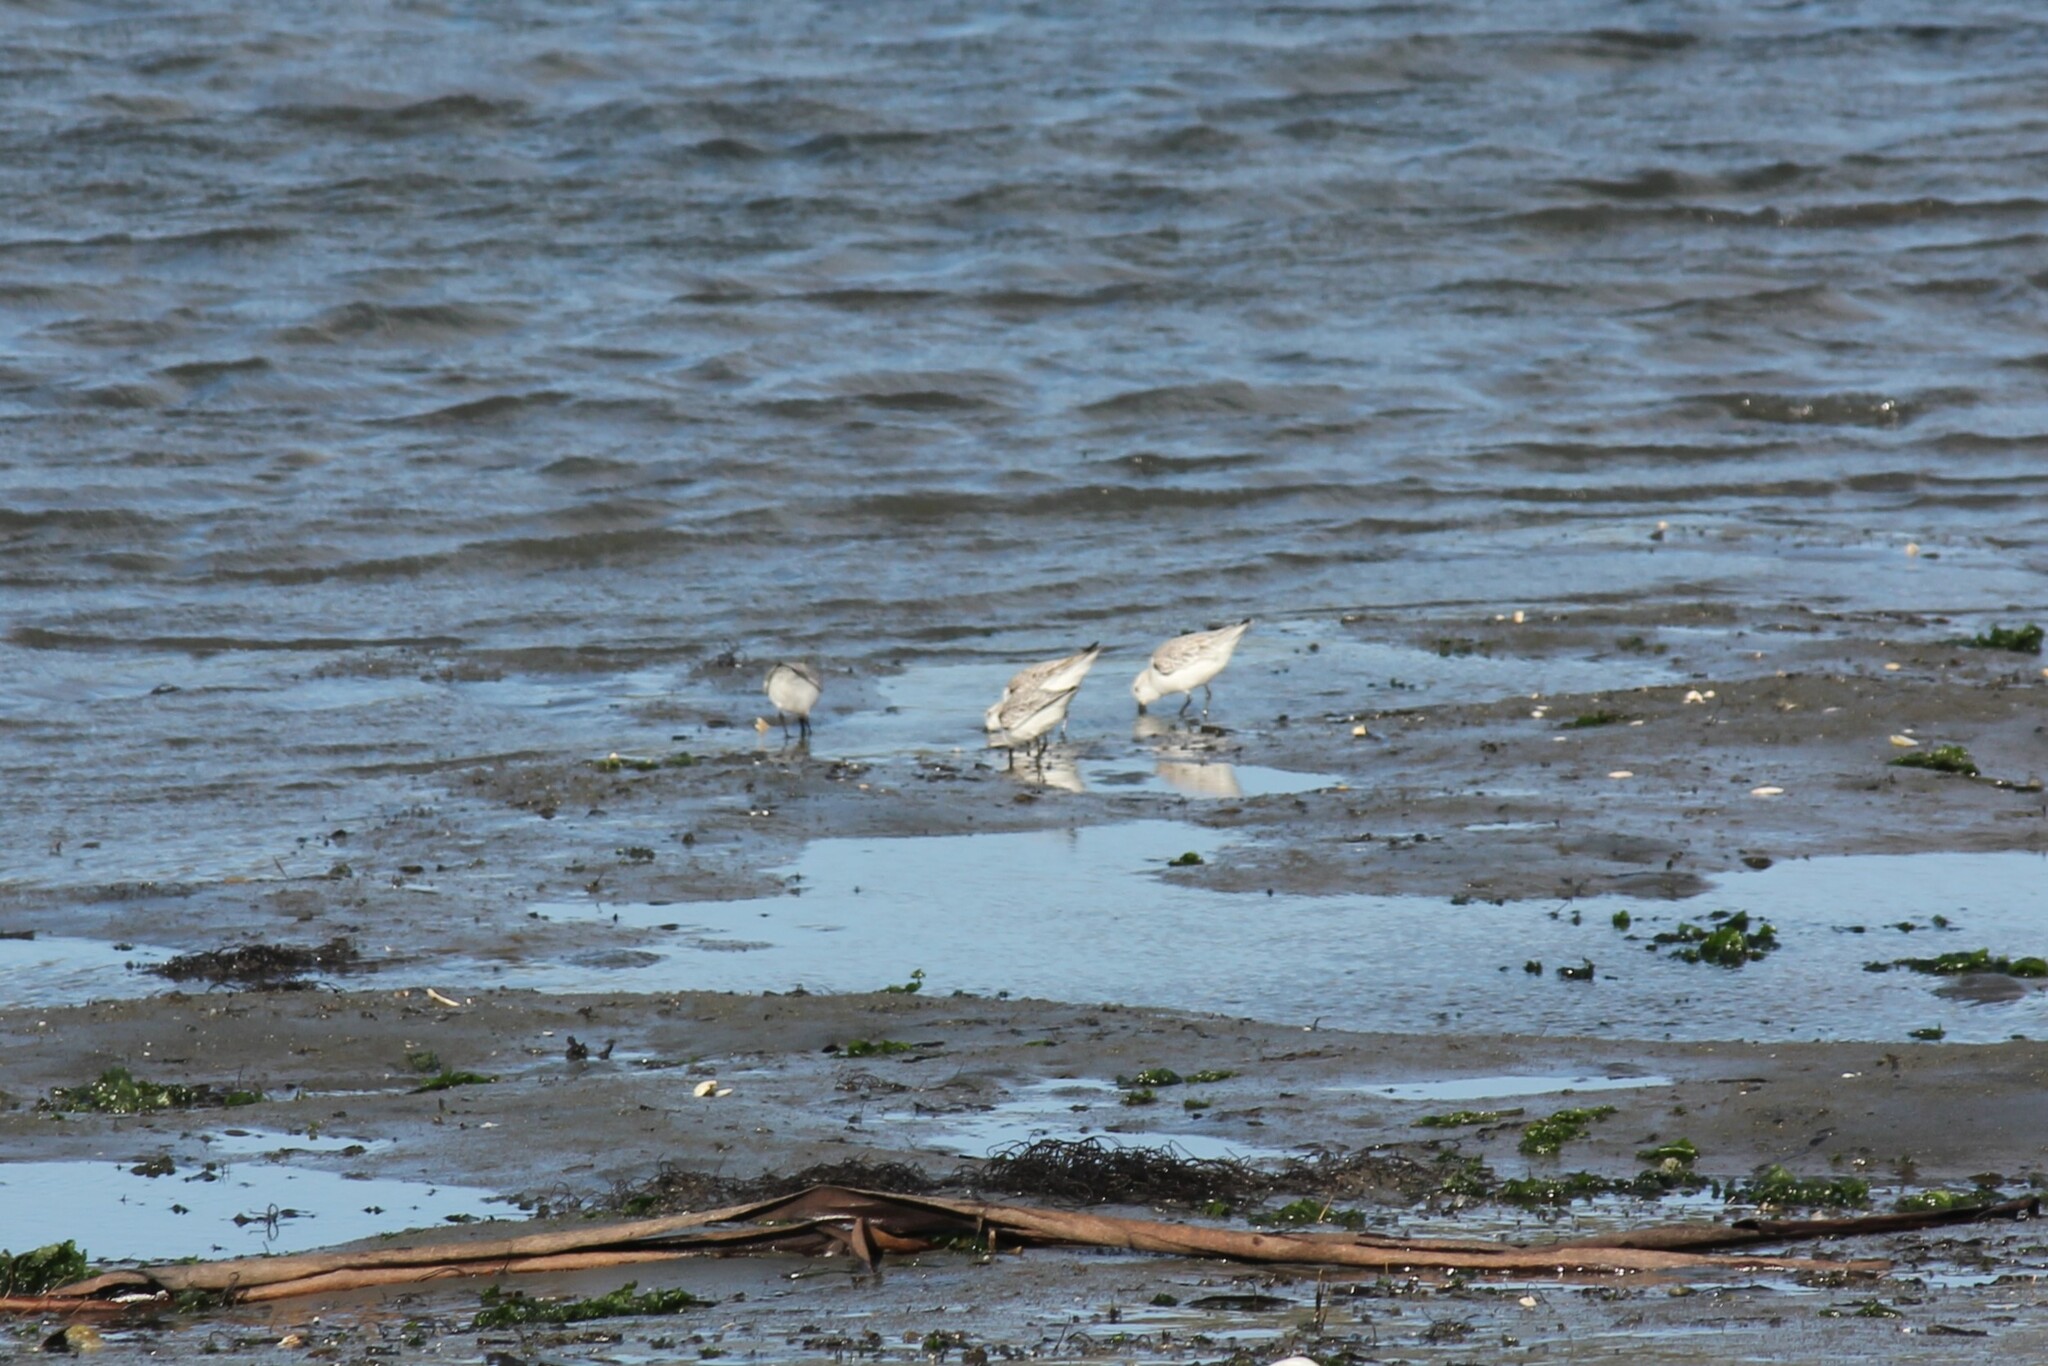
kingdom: Animalia
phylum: Chordata
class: Aves
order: Charadriiformes
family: Scolopacidae
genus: Calidris
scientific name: Calidris alba
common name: Sanderling
